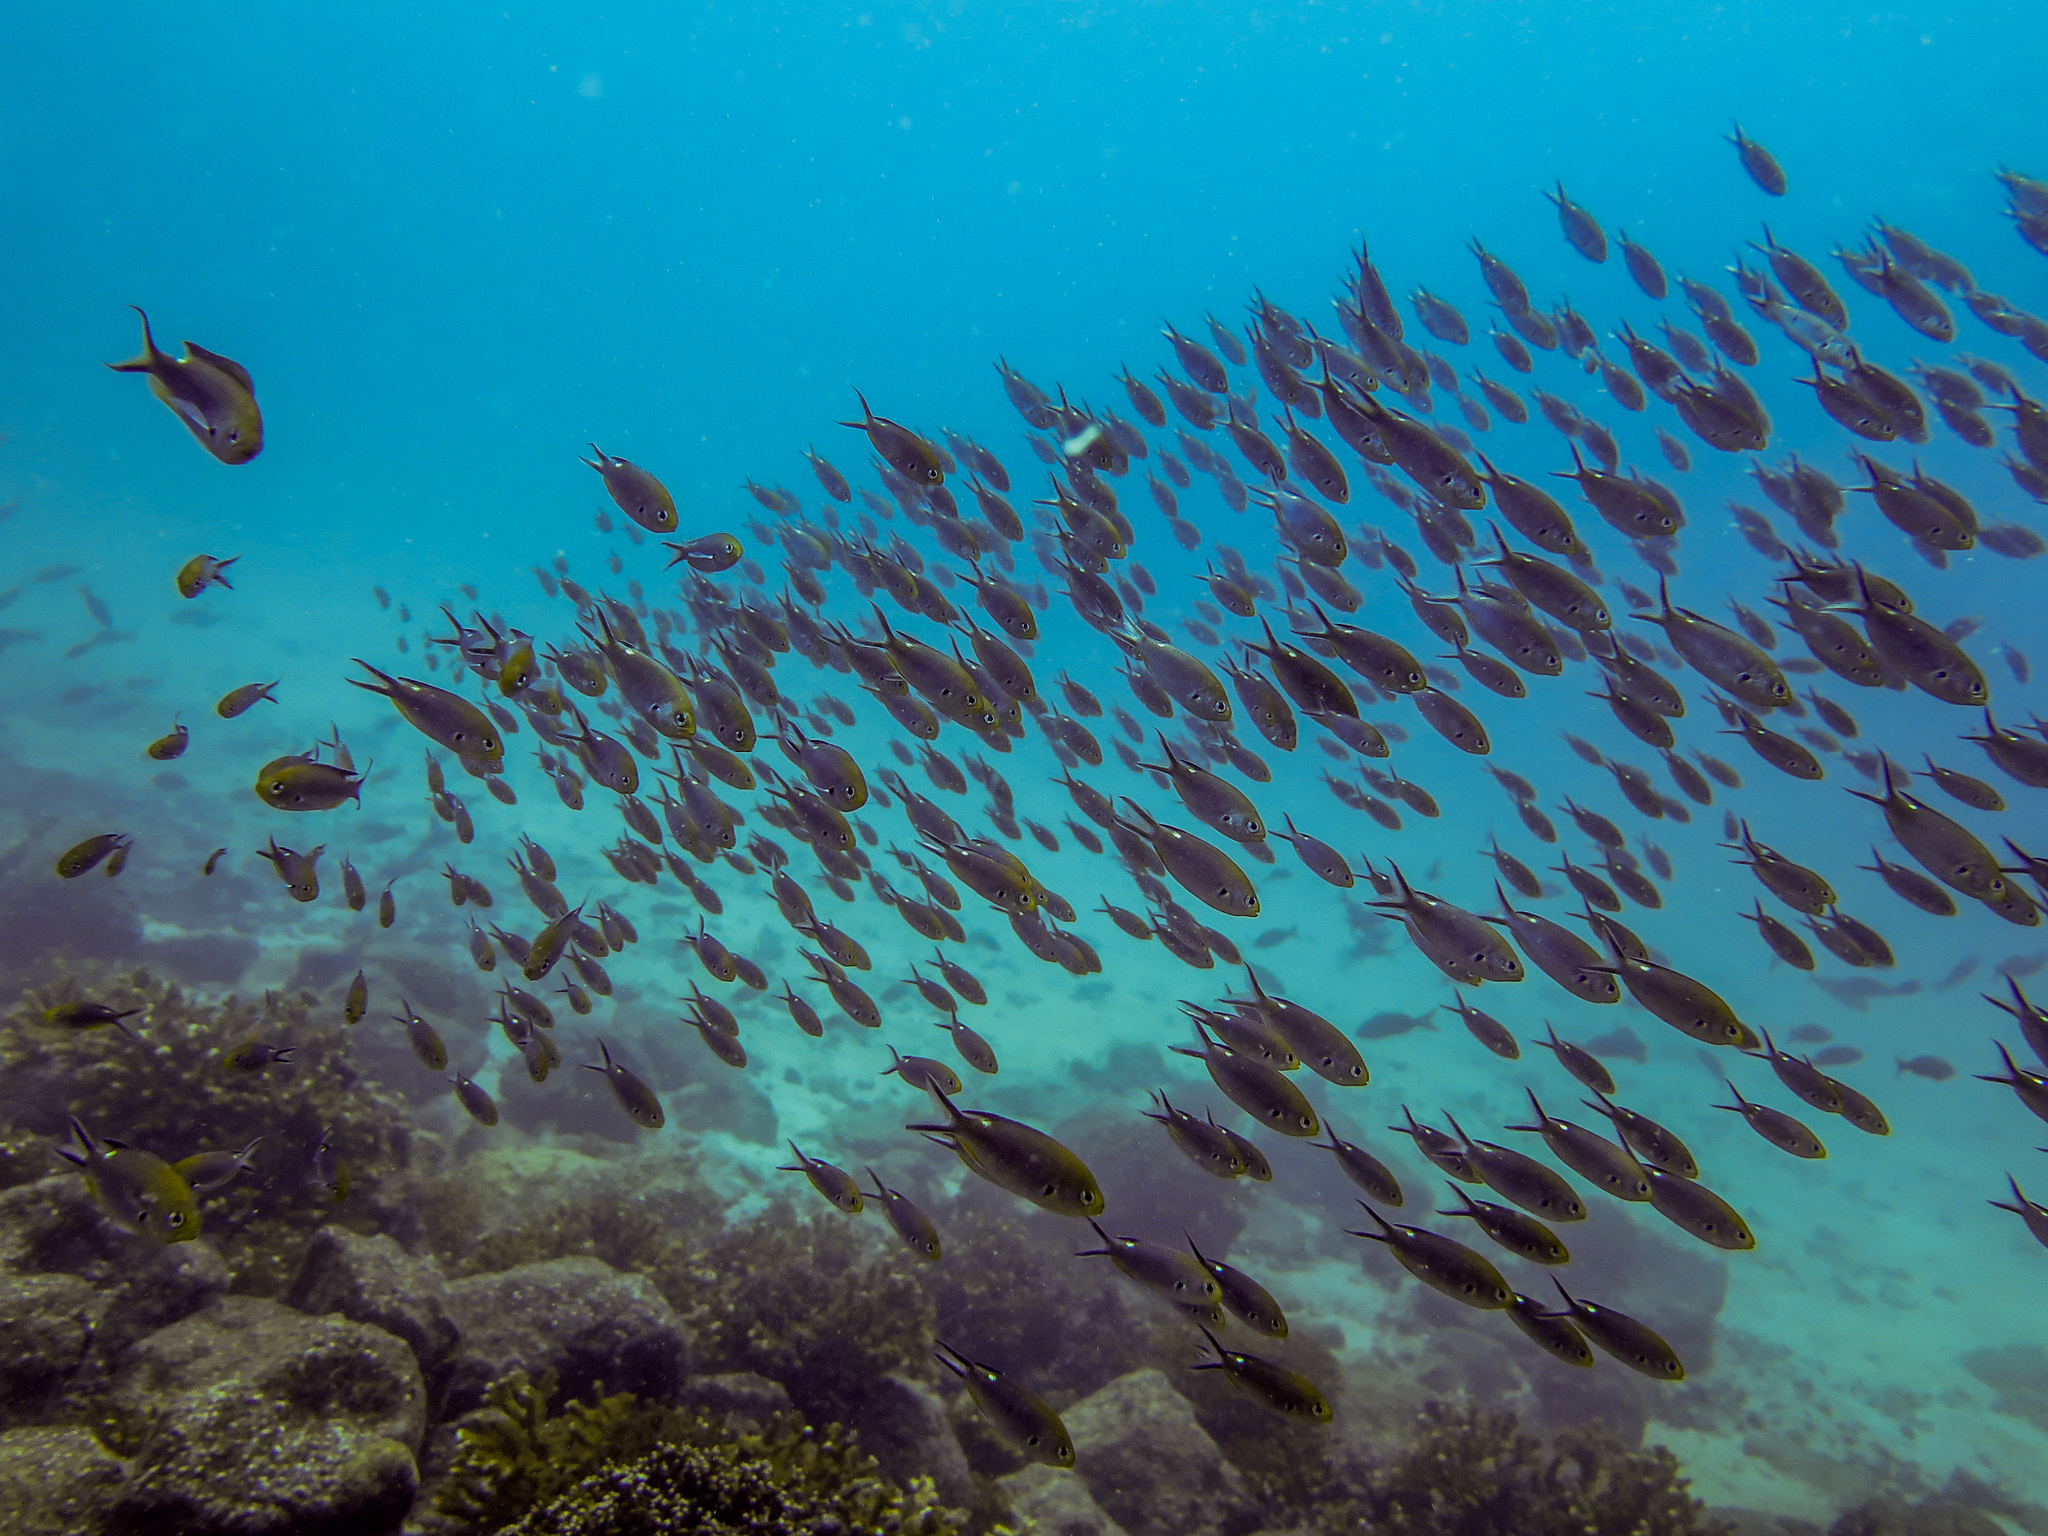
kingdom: Animalia
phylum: Chordata
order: Perciformes
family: Pomacentridae
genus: Chromis
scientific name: Chromis atrilobata
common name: Scissortail damselfish
